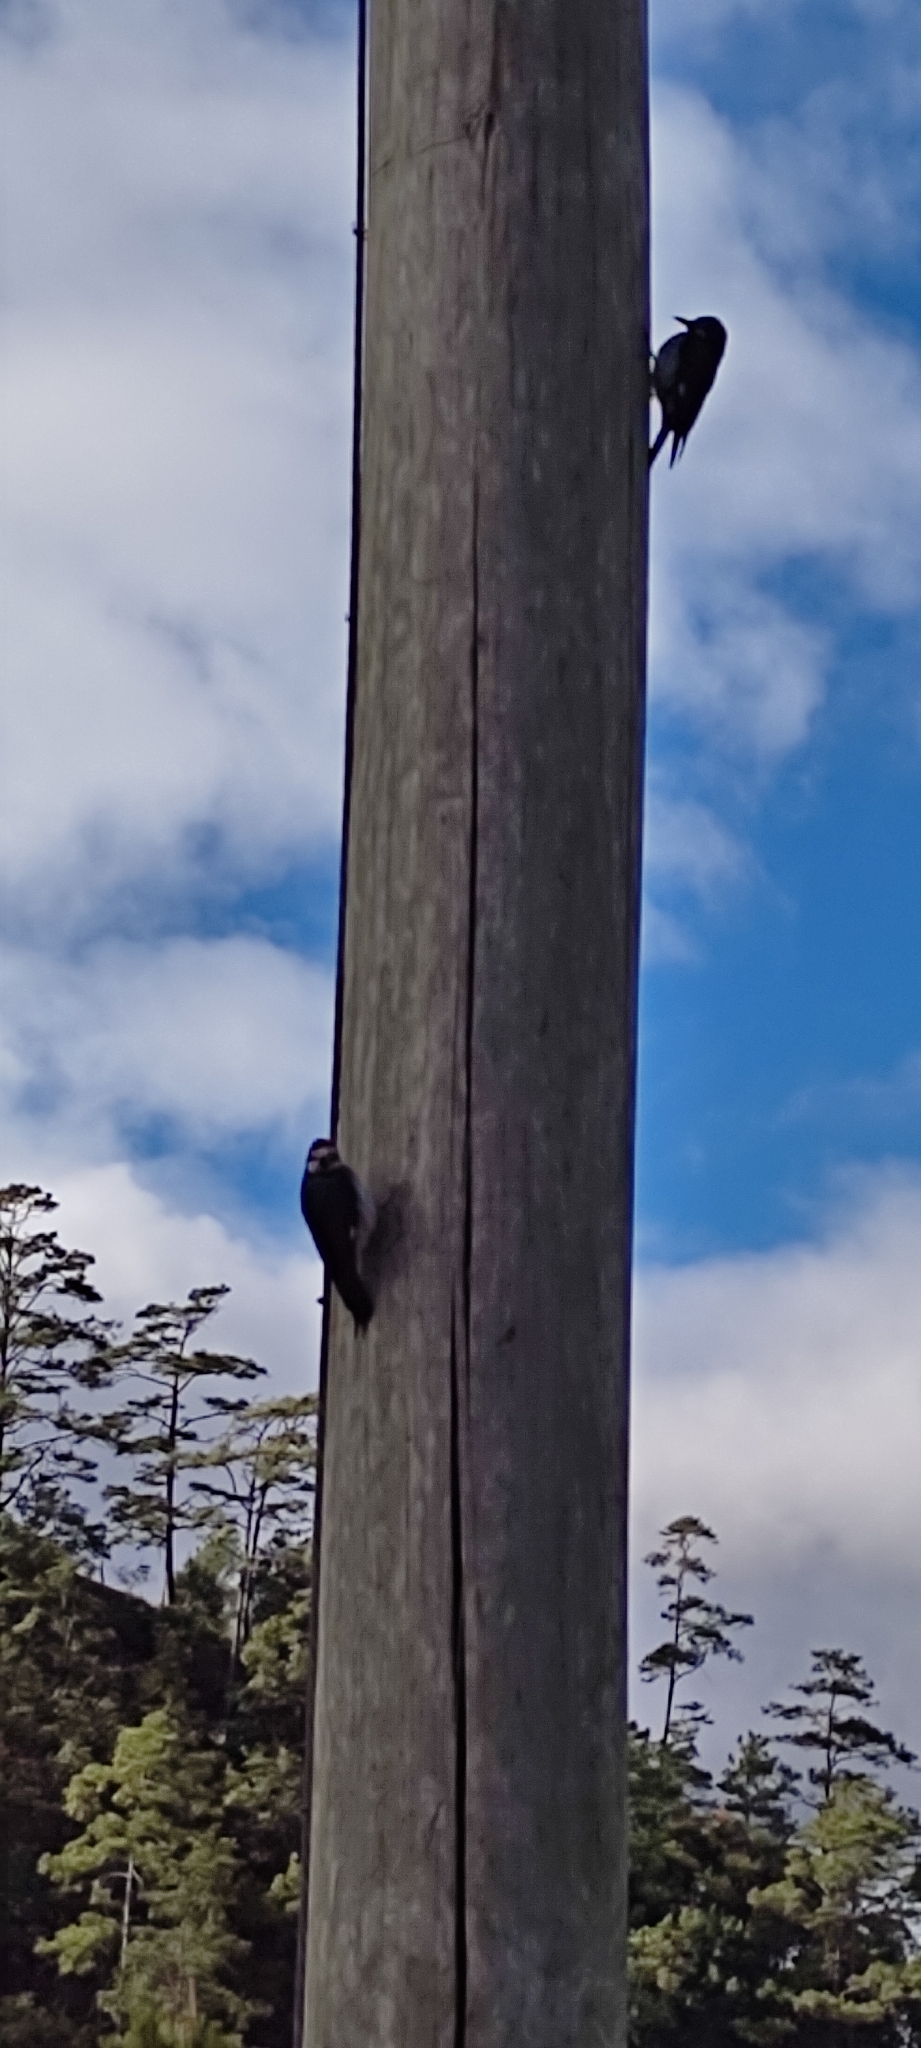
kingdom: Animalia
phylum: Chordata
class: Aves
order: Piciformes
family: Picidae
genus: Melanerpes
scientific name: Melanerpes formicivorus
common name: Acorn woodpecker
